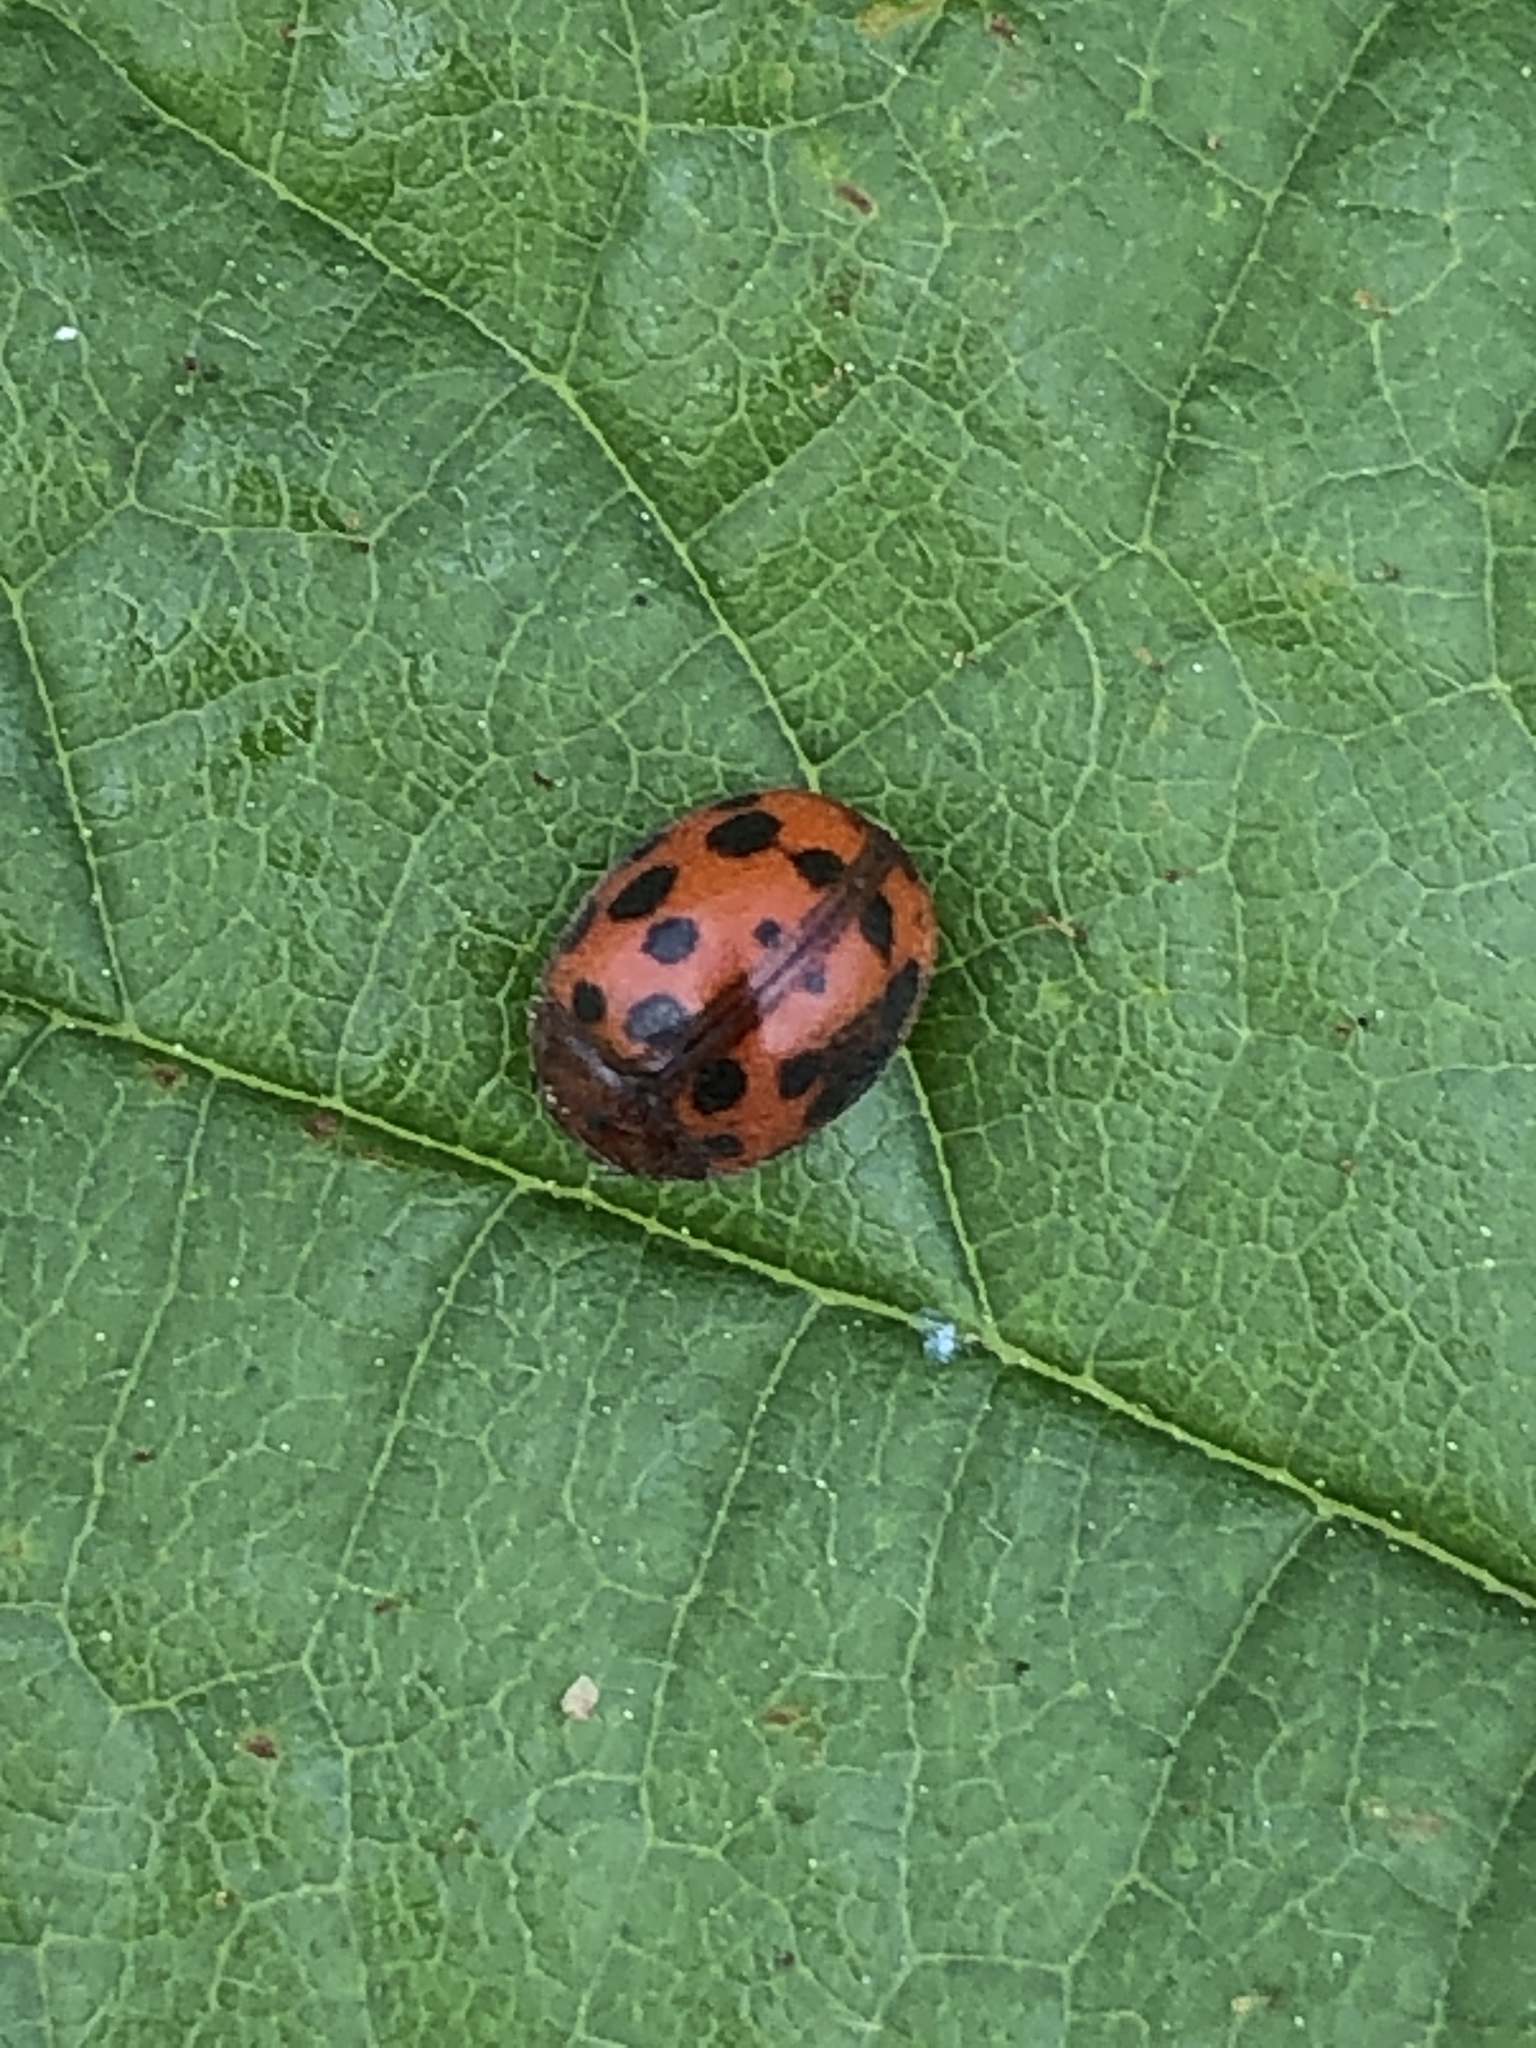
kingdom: Animalia
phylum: Arthropoda
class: Insecta
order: Coleoptera
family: Coccinellidae
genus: Subcoccinella
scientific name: Subcoccinella vigintiquatuorpunctata
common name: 24-spot ladybird
